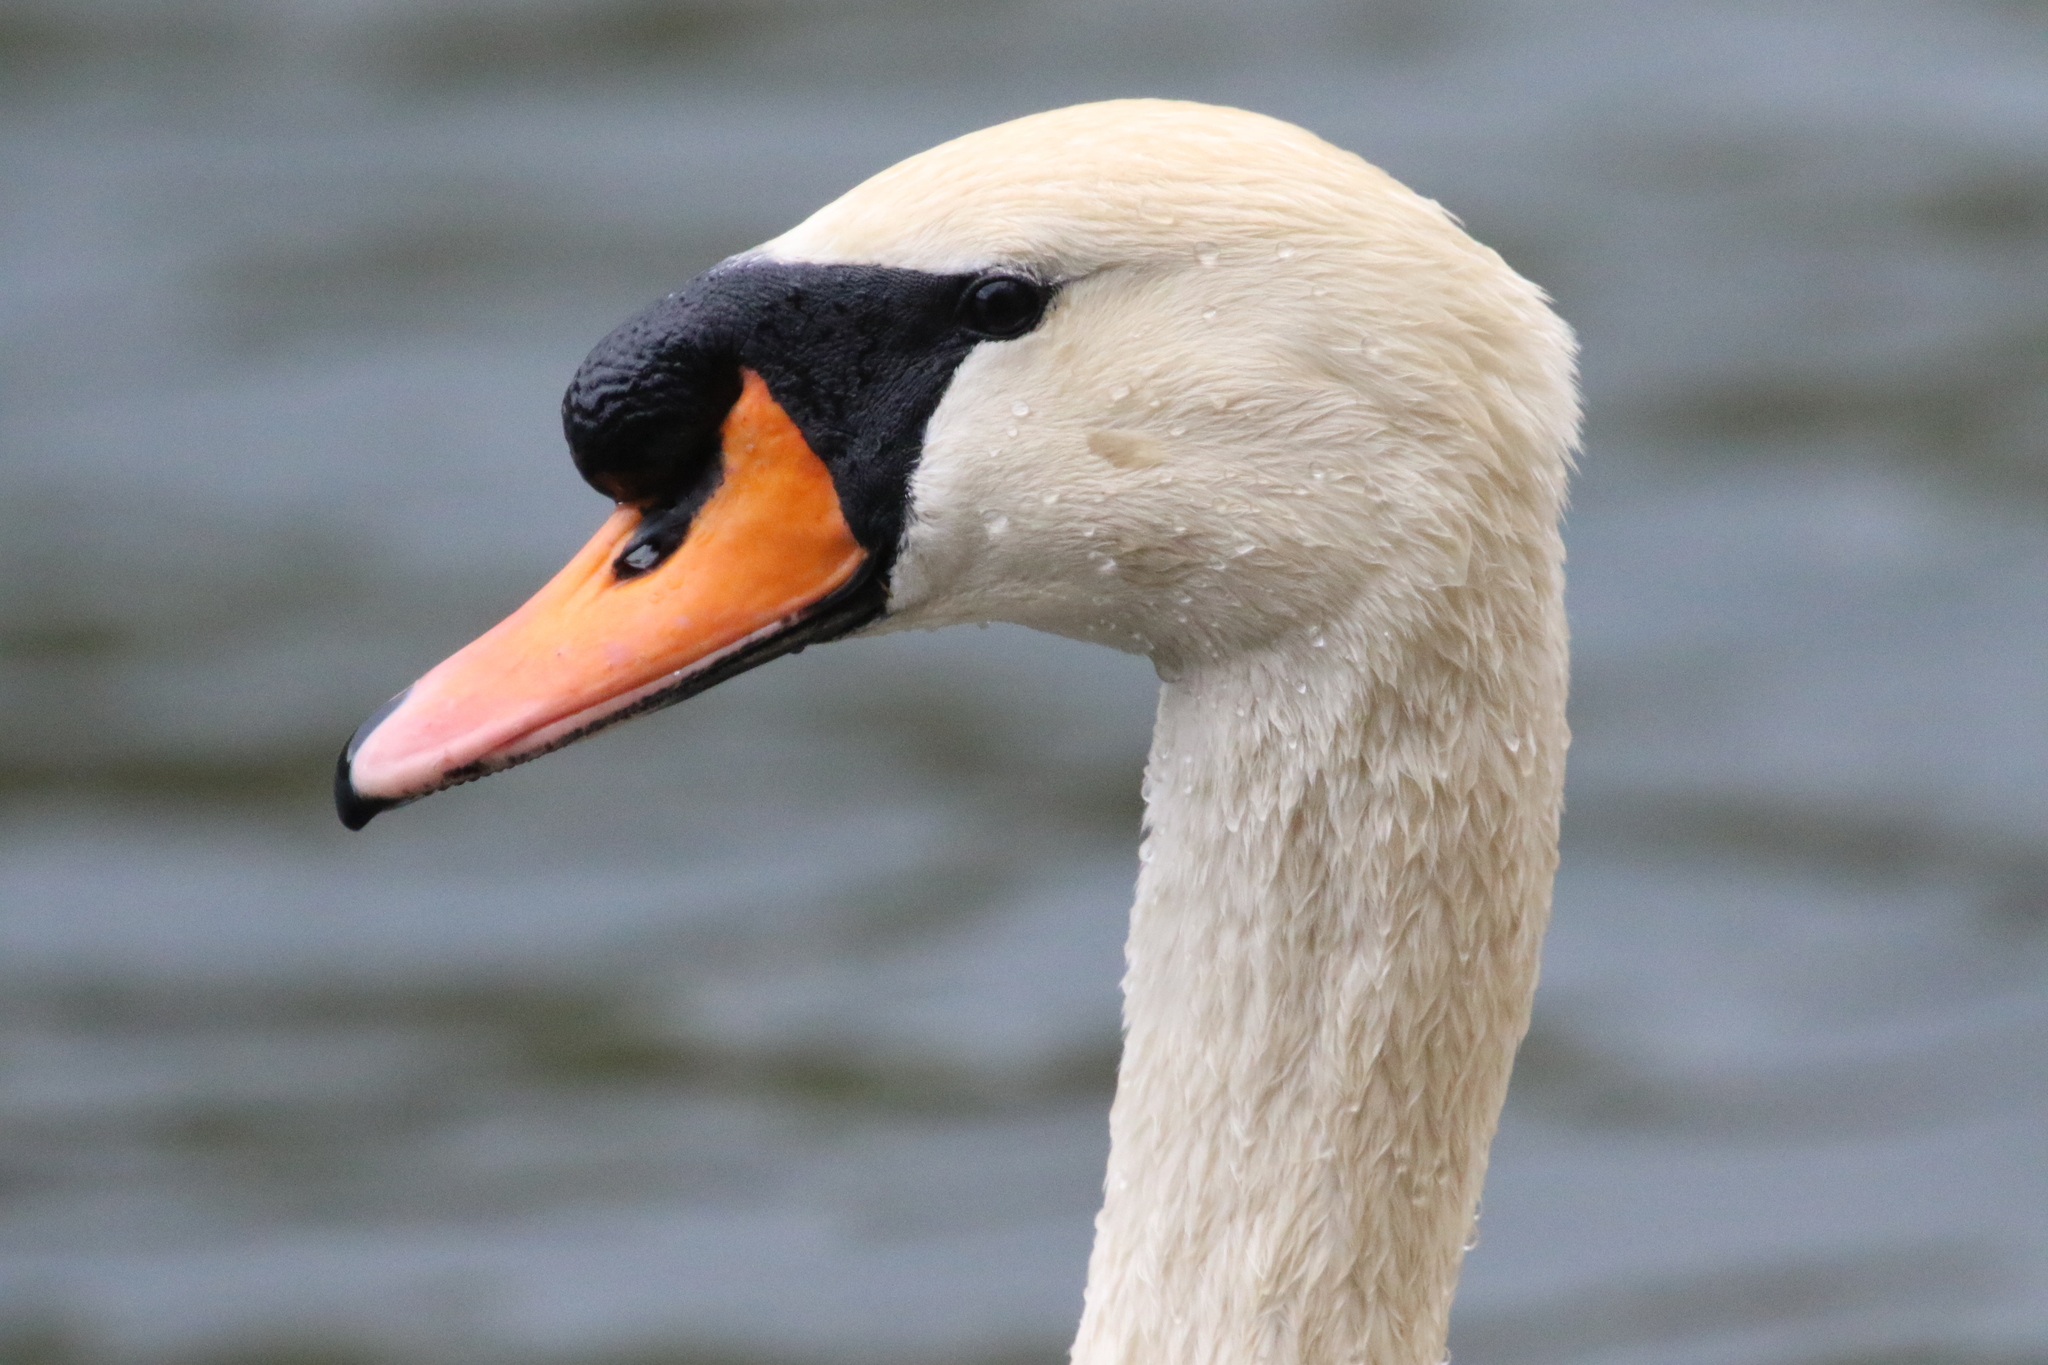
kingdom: Animalia
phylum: Chordata
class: Aves
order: Anseriformes
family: Anatidae
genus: Cygnus
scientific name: Cygnus olor
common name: Mute swan
